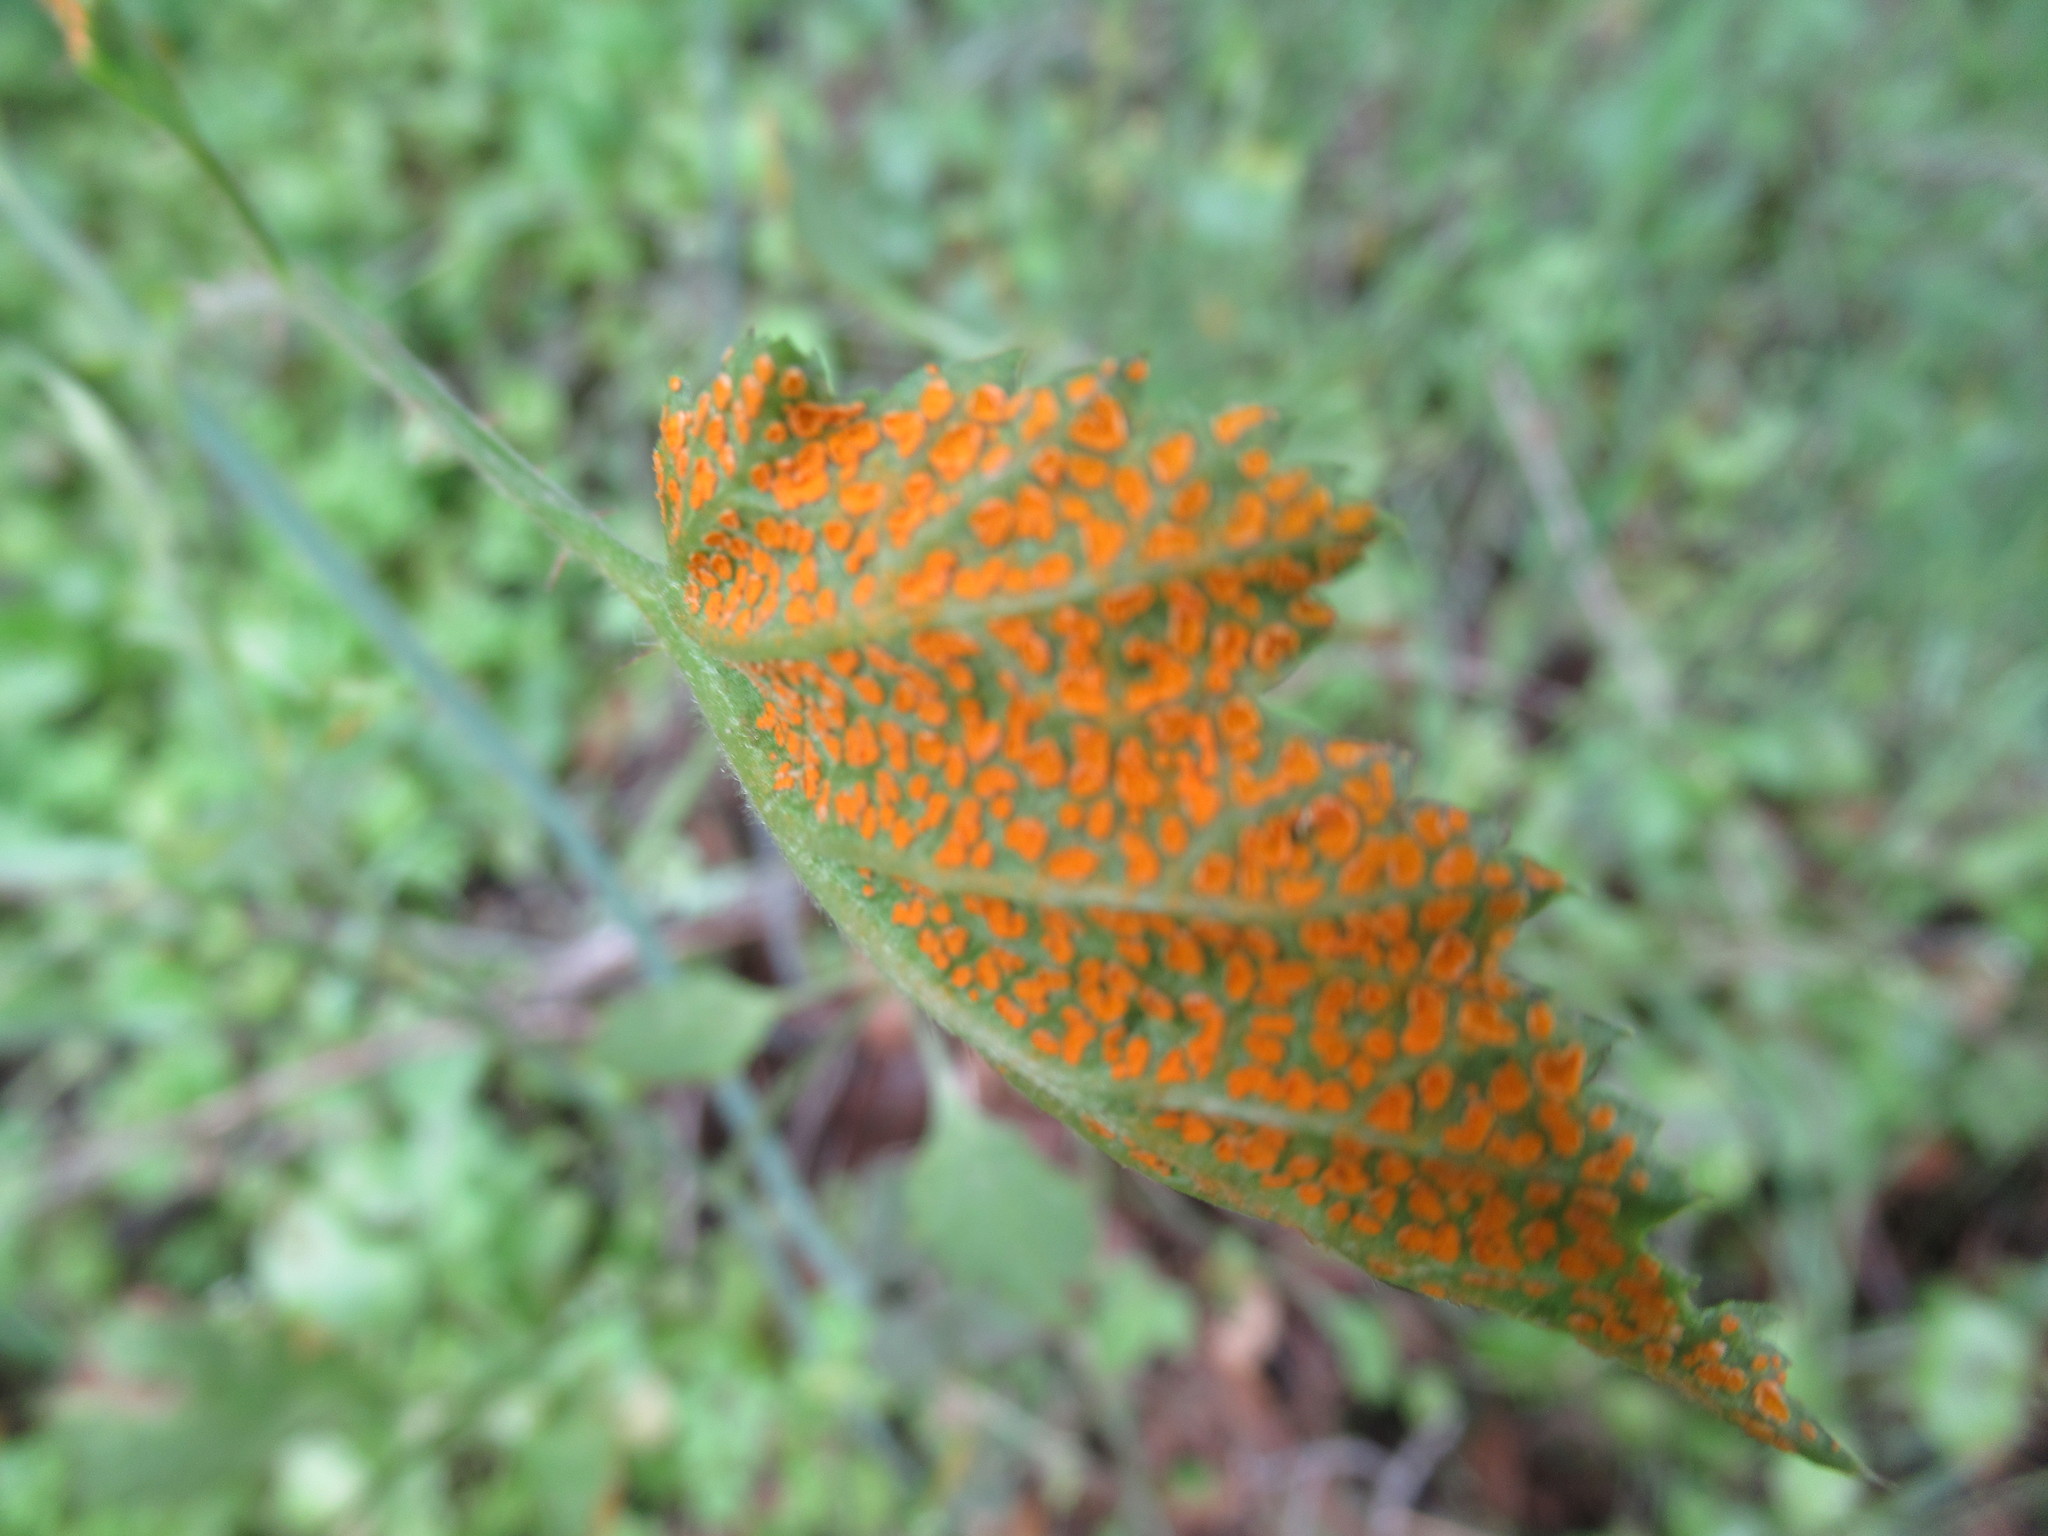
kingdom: Fungi
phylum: Basidiomycota
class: Pucciniomycetes
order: Pucciniales
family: Phragmidiaceae
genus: Arthuriomyces
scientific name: Arthuriomyces peckianus
